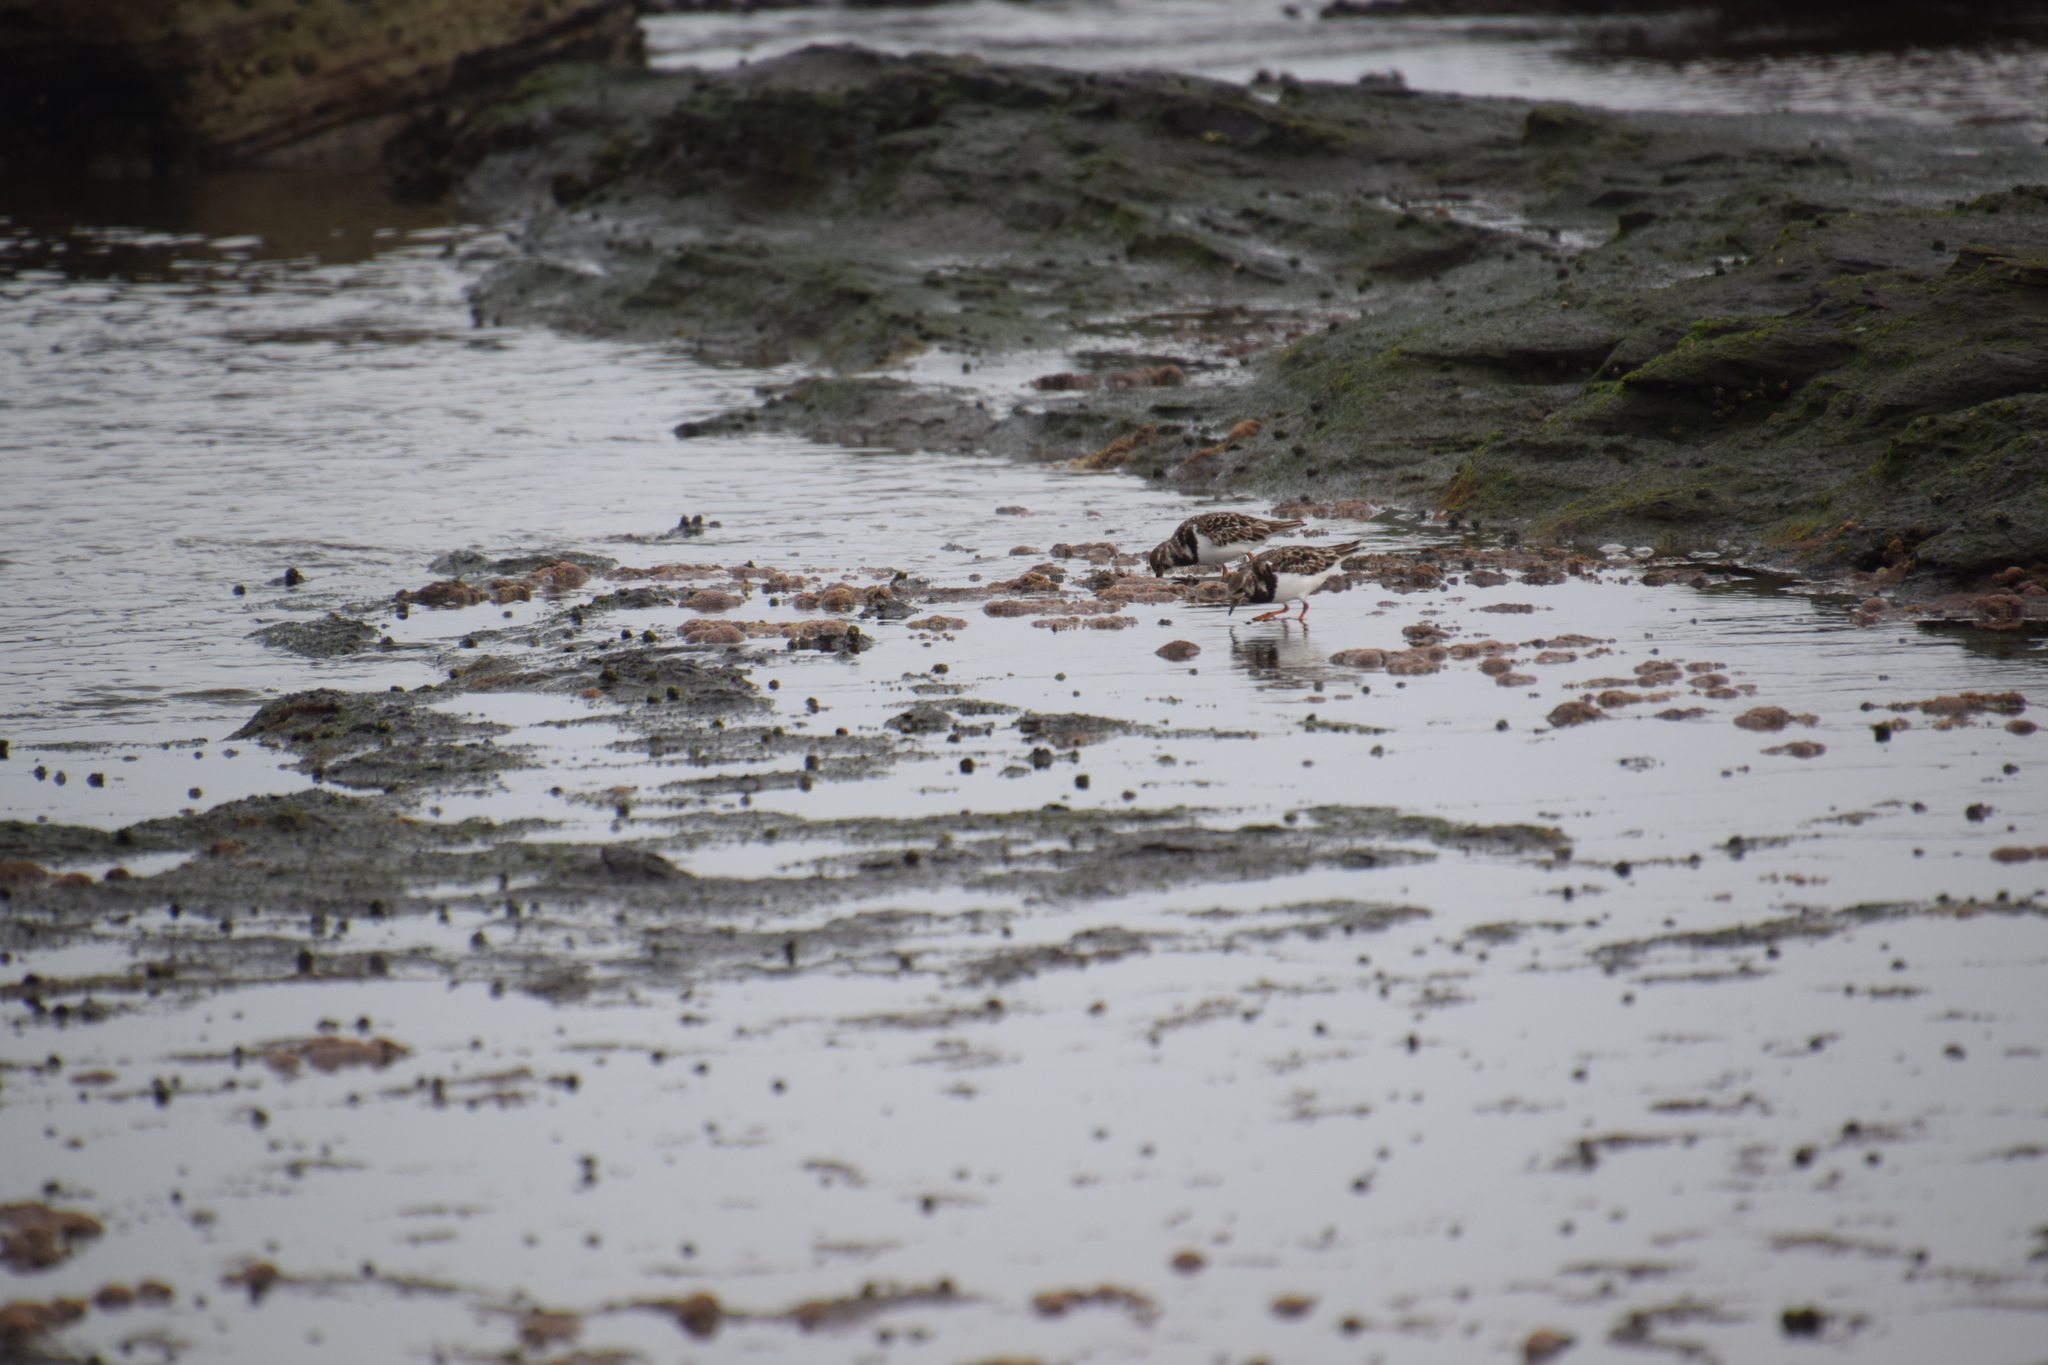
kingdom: Animalia
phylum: Chordata
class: Aves
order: Charadriiformes
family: Scolopacidae
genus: Arenaria
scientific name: Arenaria interpres
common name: Ruddy turnstone
